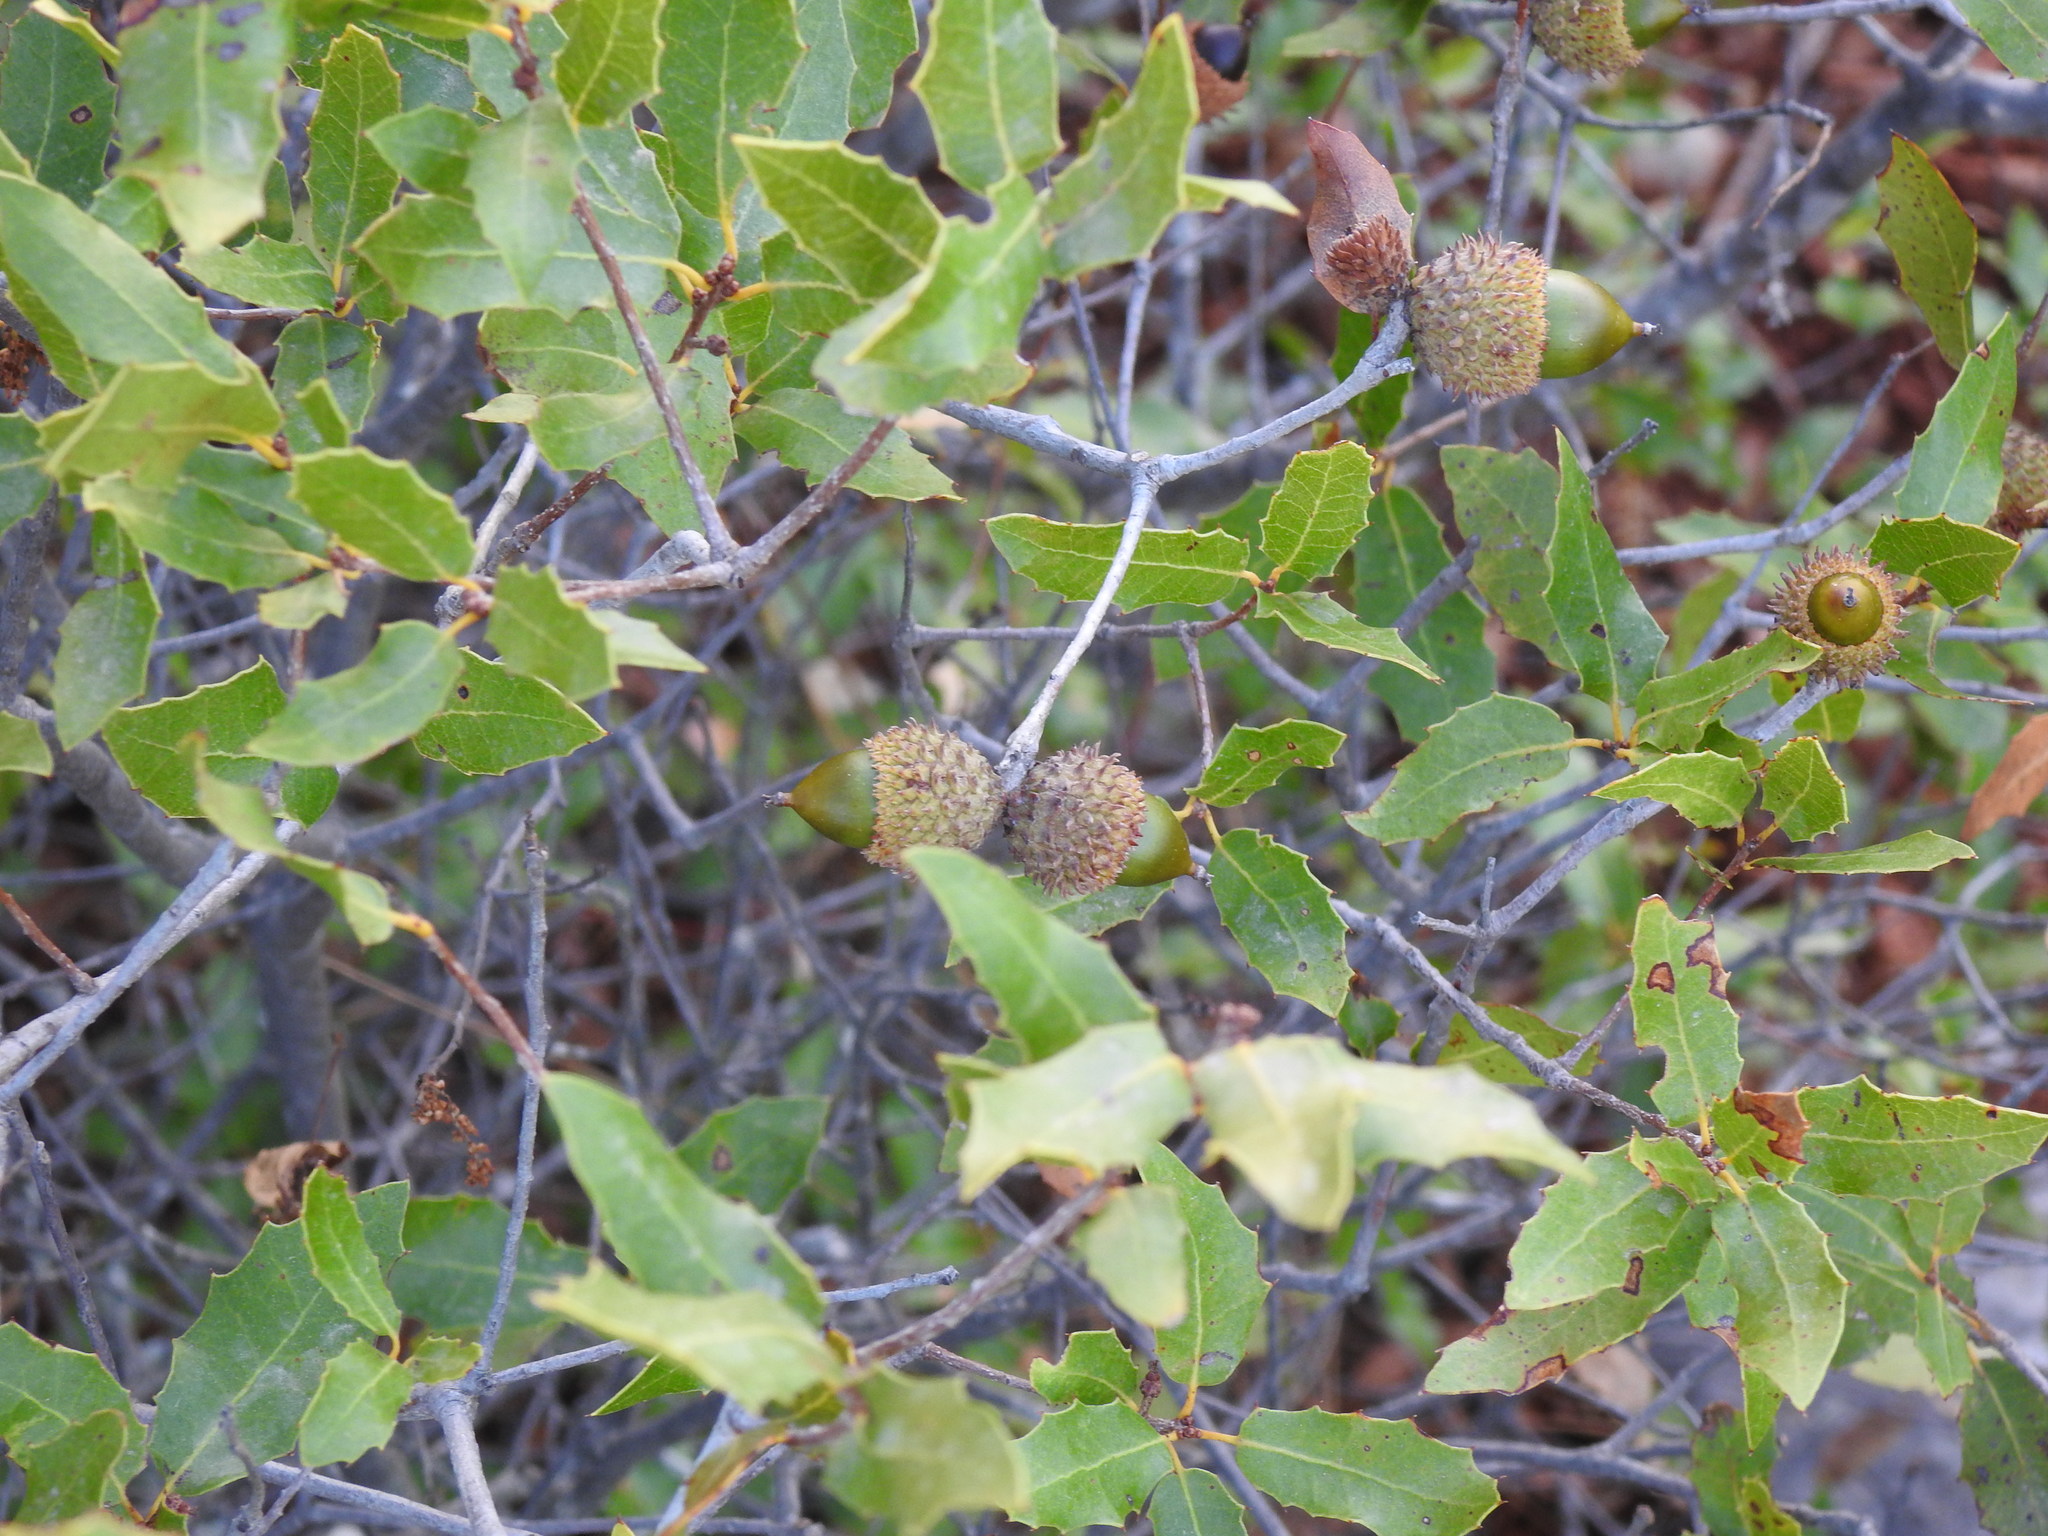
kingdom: Plantae
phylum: Tracheophyta
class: Magnoliopsida
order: Fagales
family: Fagaceae
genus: Quercus
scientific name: Quercus coccifera
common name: Kermes oak
